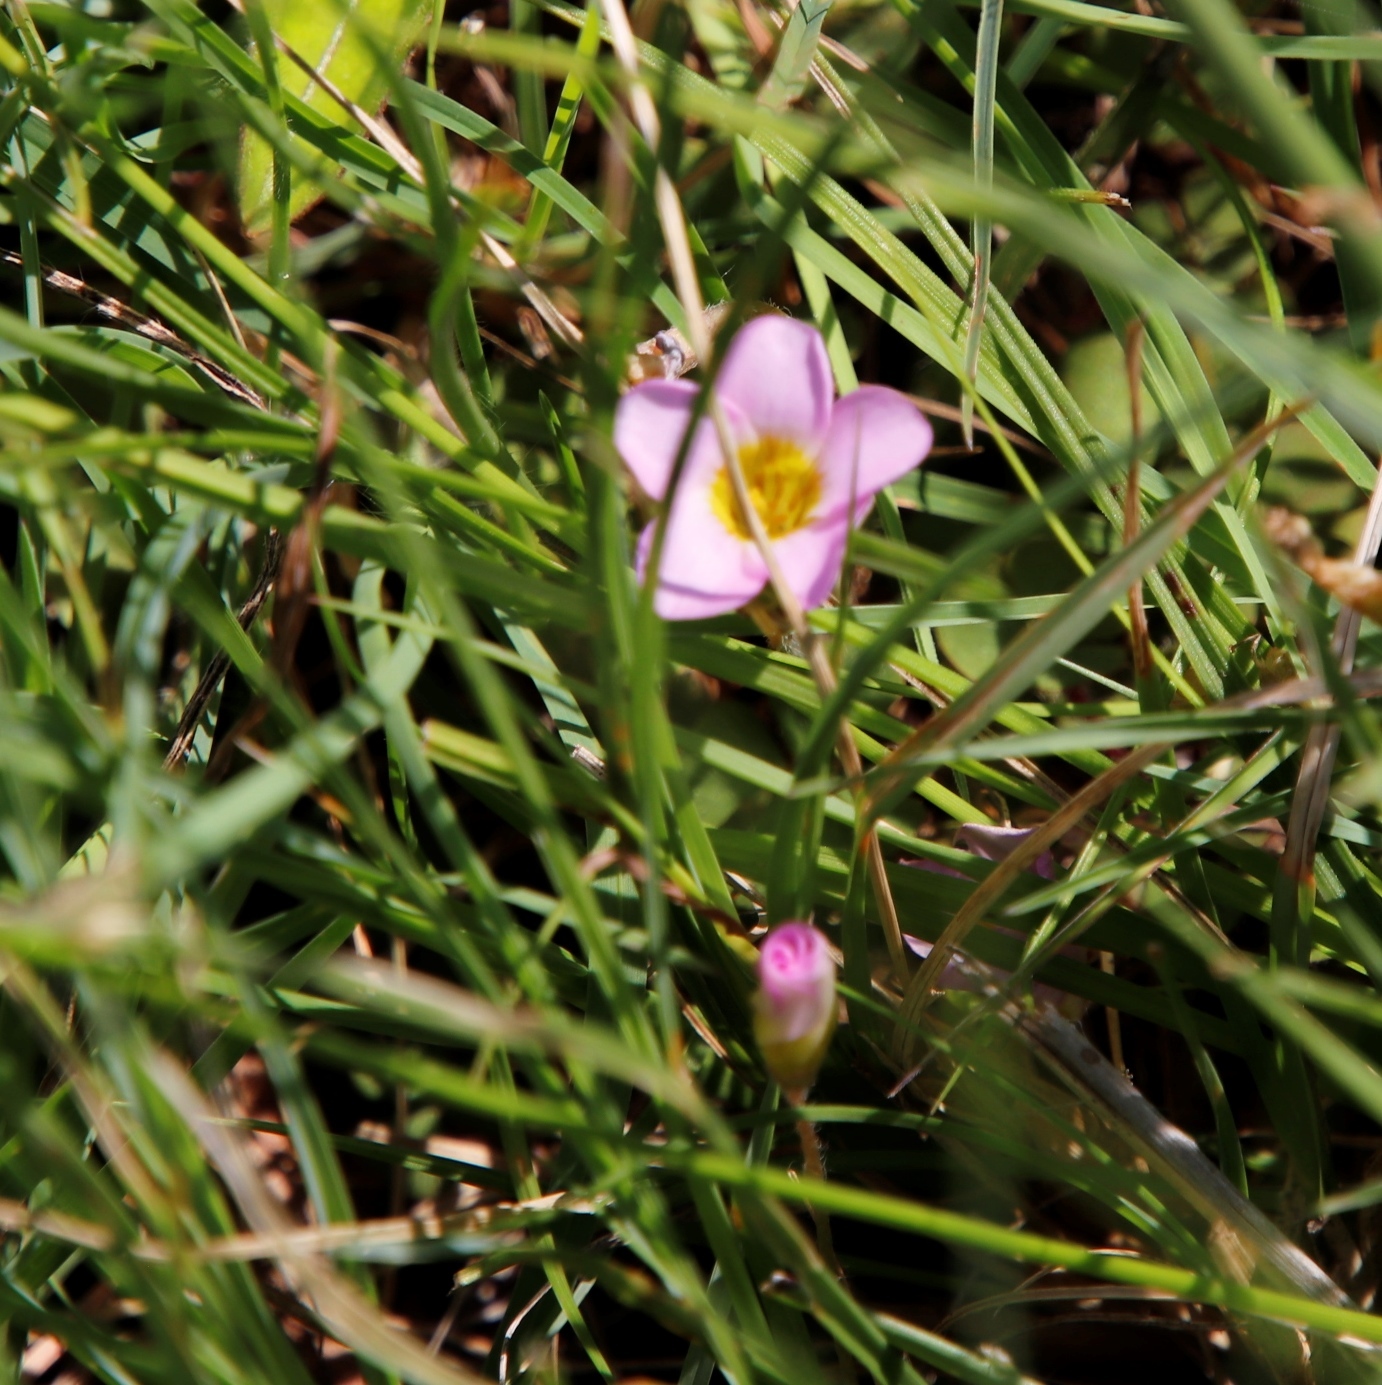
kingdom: Plantae
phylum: Tracheophyta
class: Magnoliopsida
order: Oxalidales
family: Oxalidaceae
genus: Oxalis
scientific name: Oxalis obliquifolia
